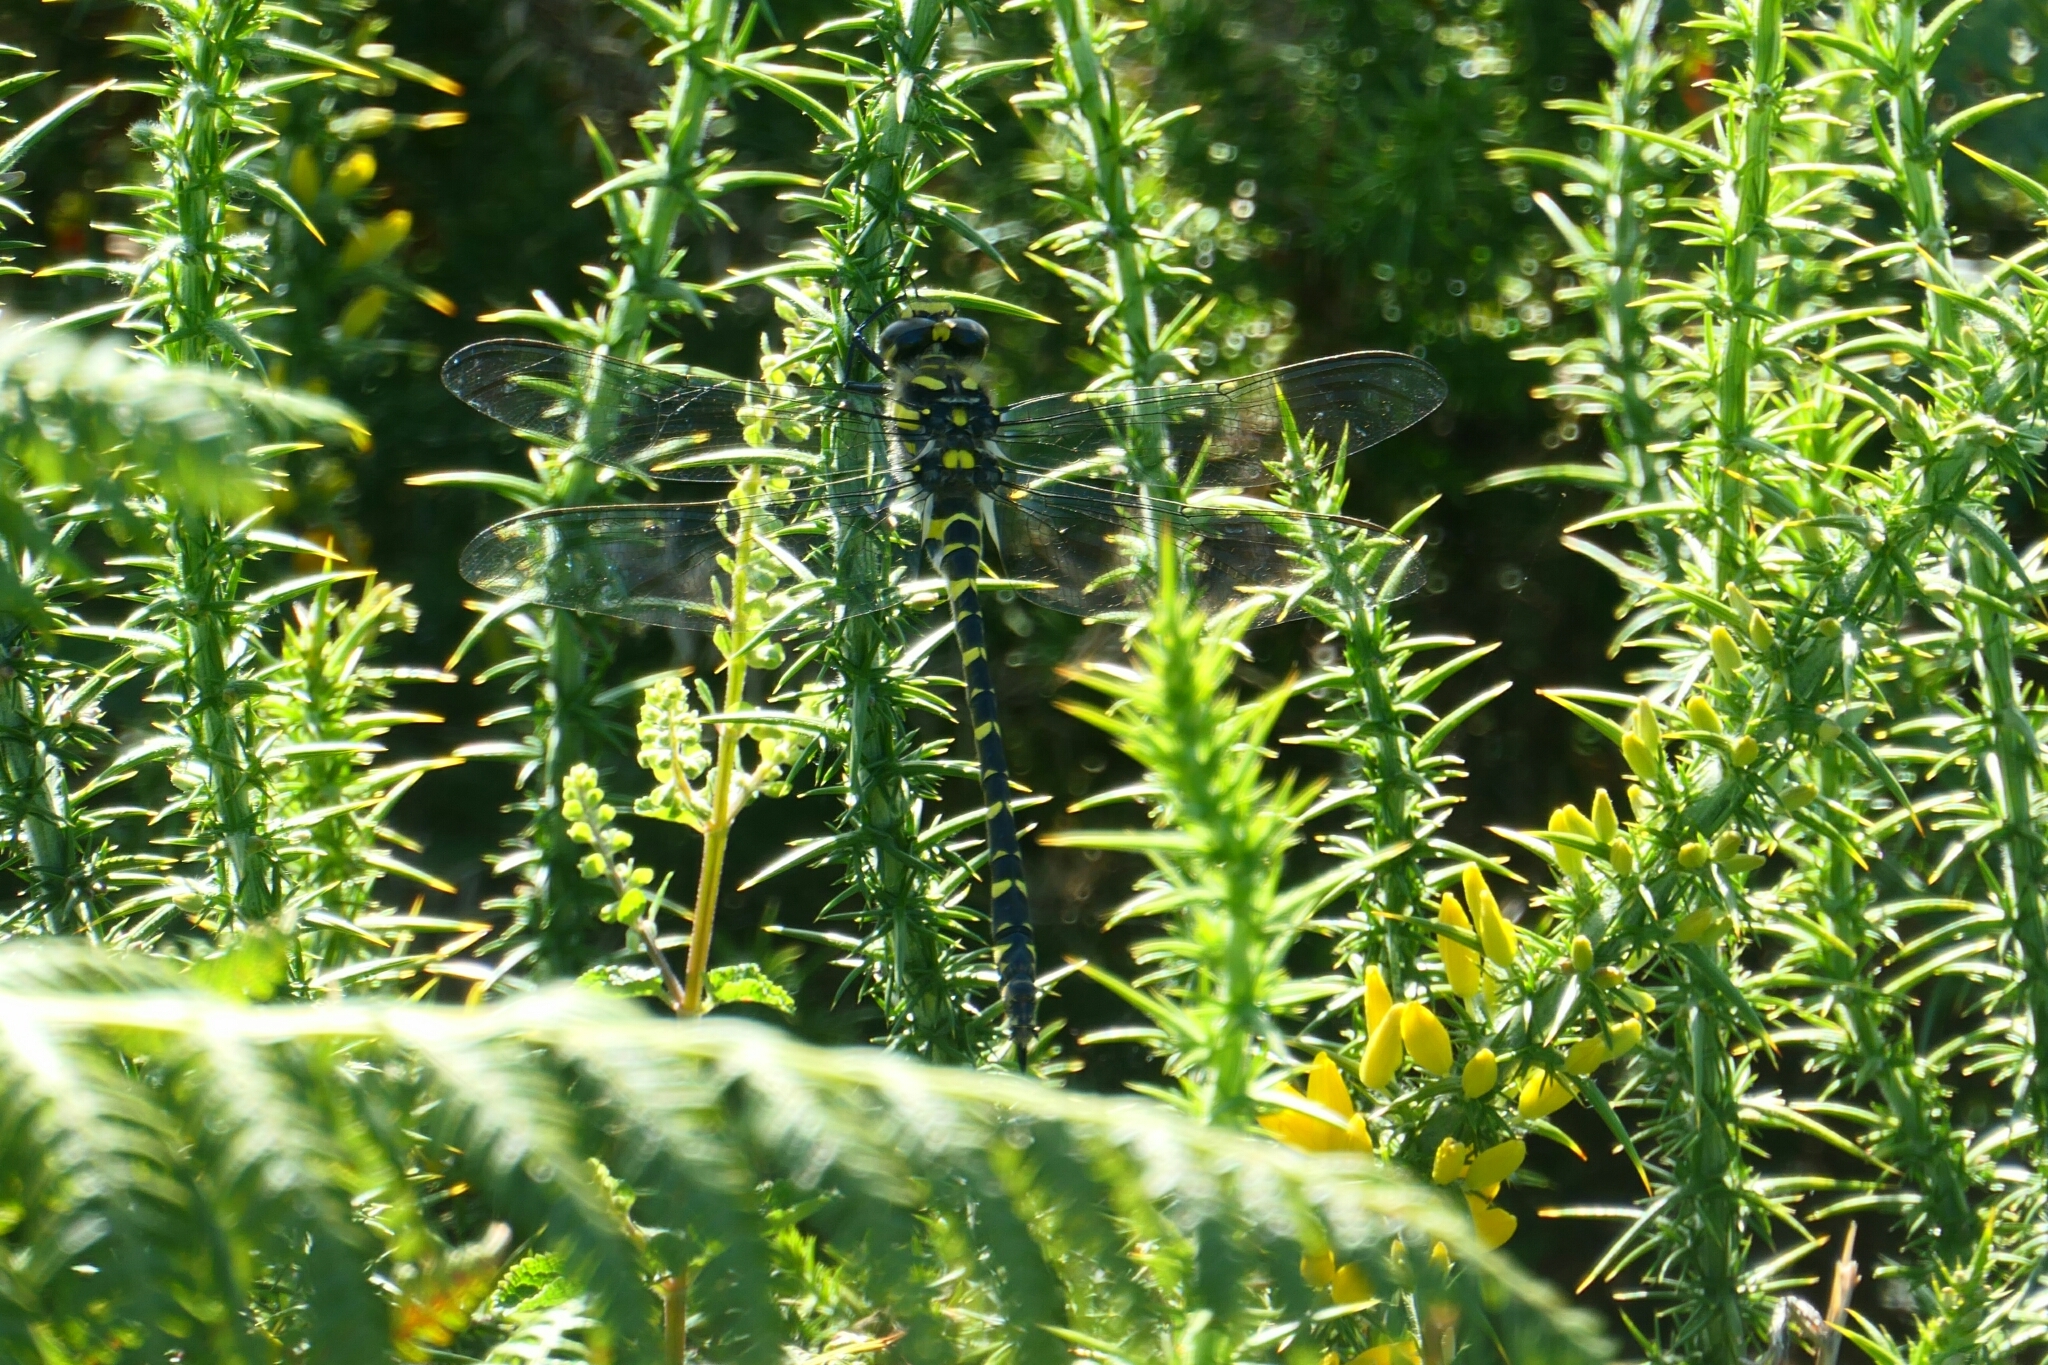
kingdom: Animalia
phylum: Arthropoda
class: Insecta
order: Odonata
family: Cordulegastridae
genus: Cordulegaster
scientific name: Cordulegaster boltonii
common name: Golden-ringed dragonfly
